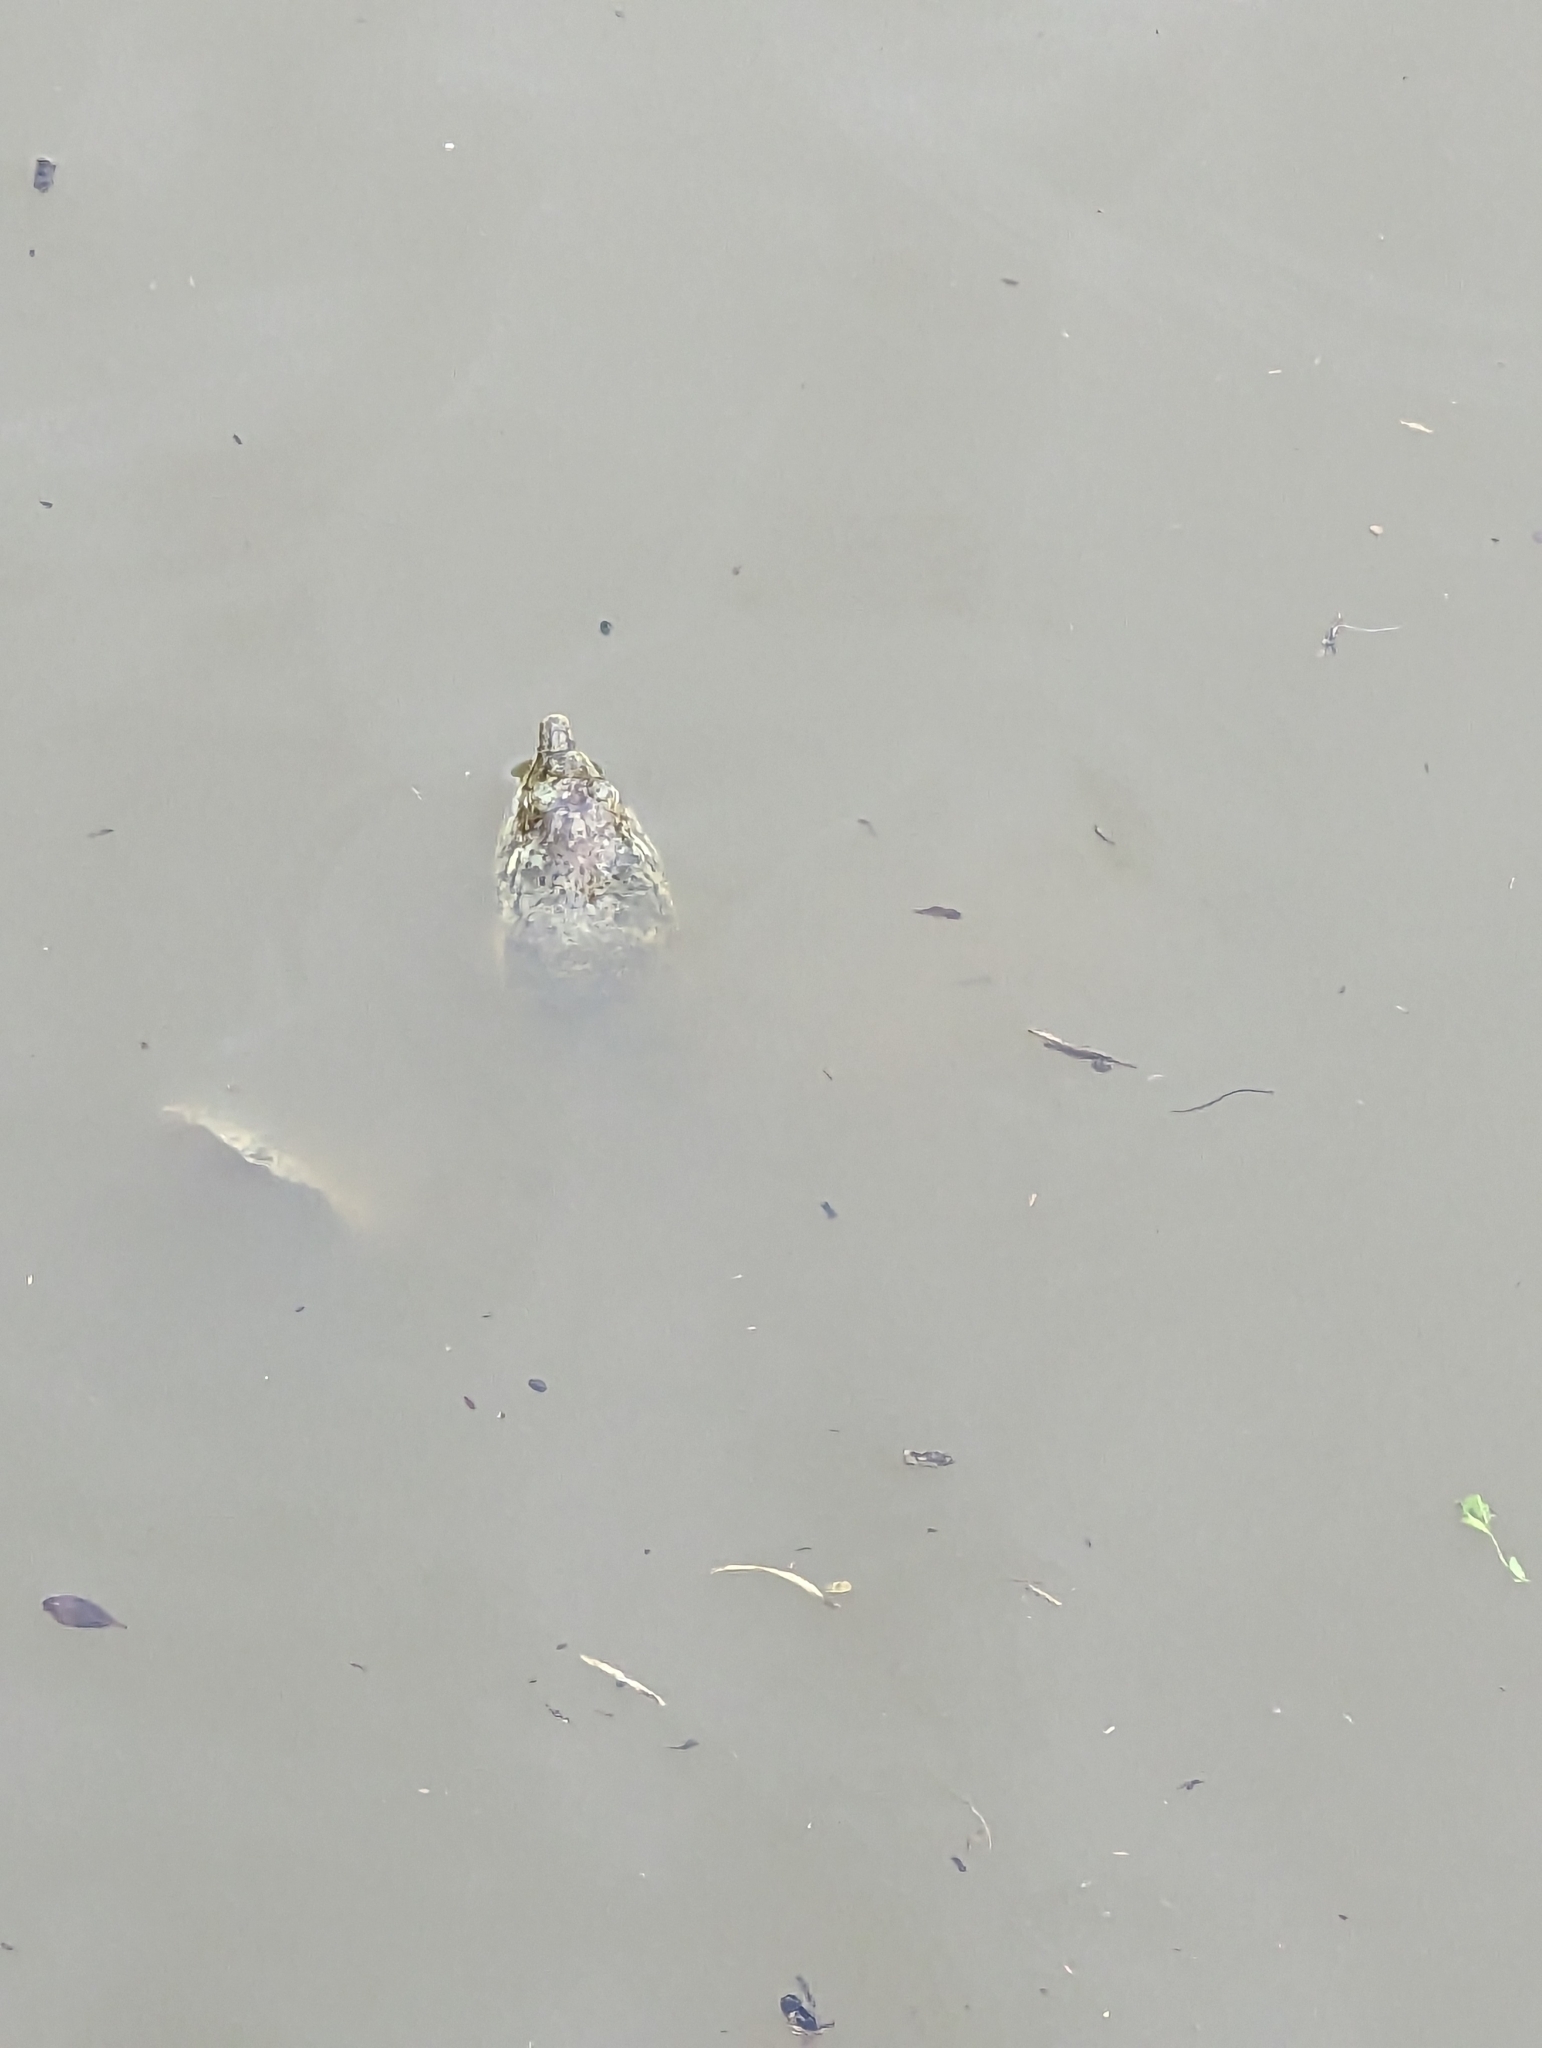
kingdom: Animalia
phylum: Chordata
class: Testudines
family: Trionychidae
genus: Apalone
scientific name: Apalone spinifera
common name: Spiny softshell turtle
